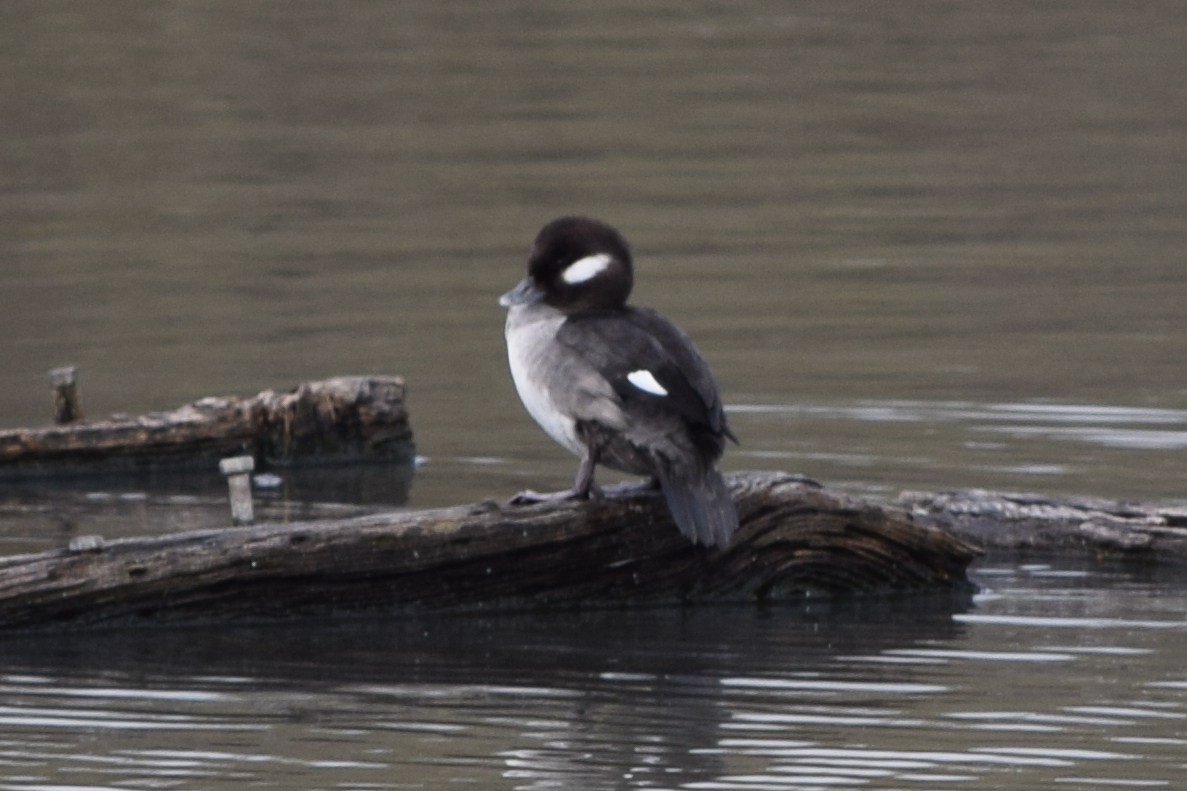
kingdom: Animalia
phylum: Chordata
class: Aves
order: Anseriformes
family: Anatidae
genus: Bucephala
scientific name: Bucephala albeola
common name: Bufflehead
